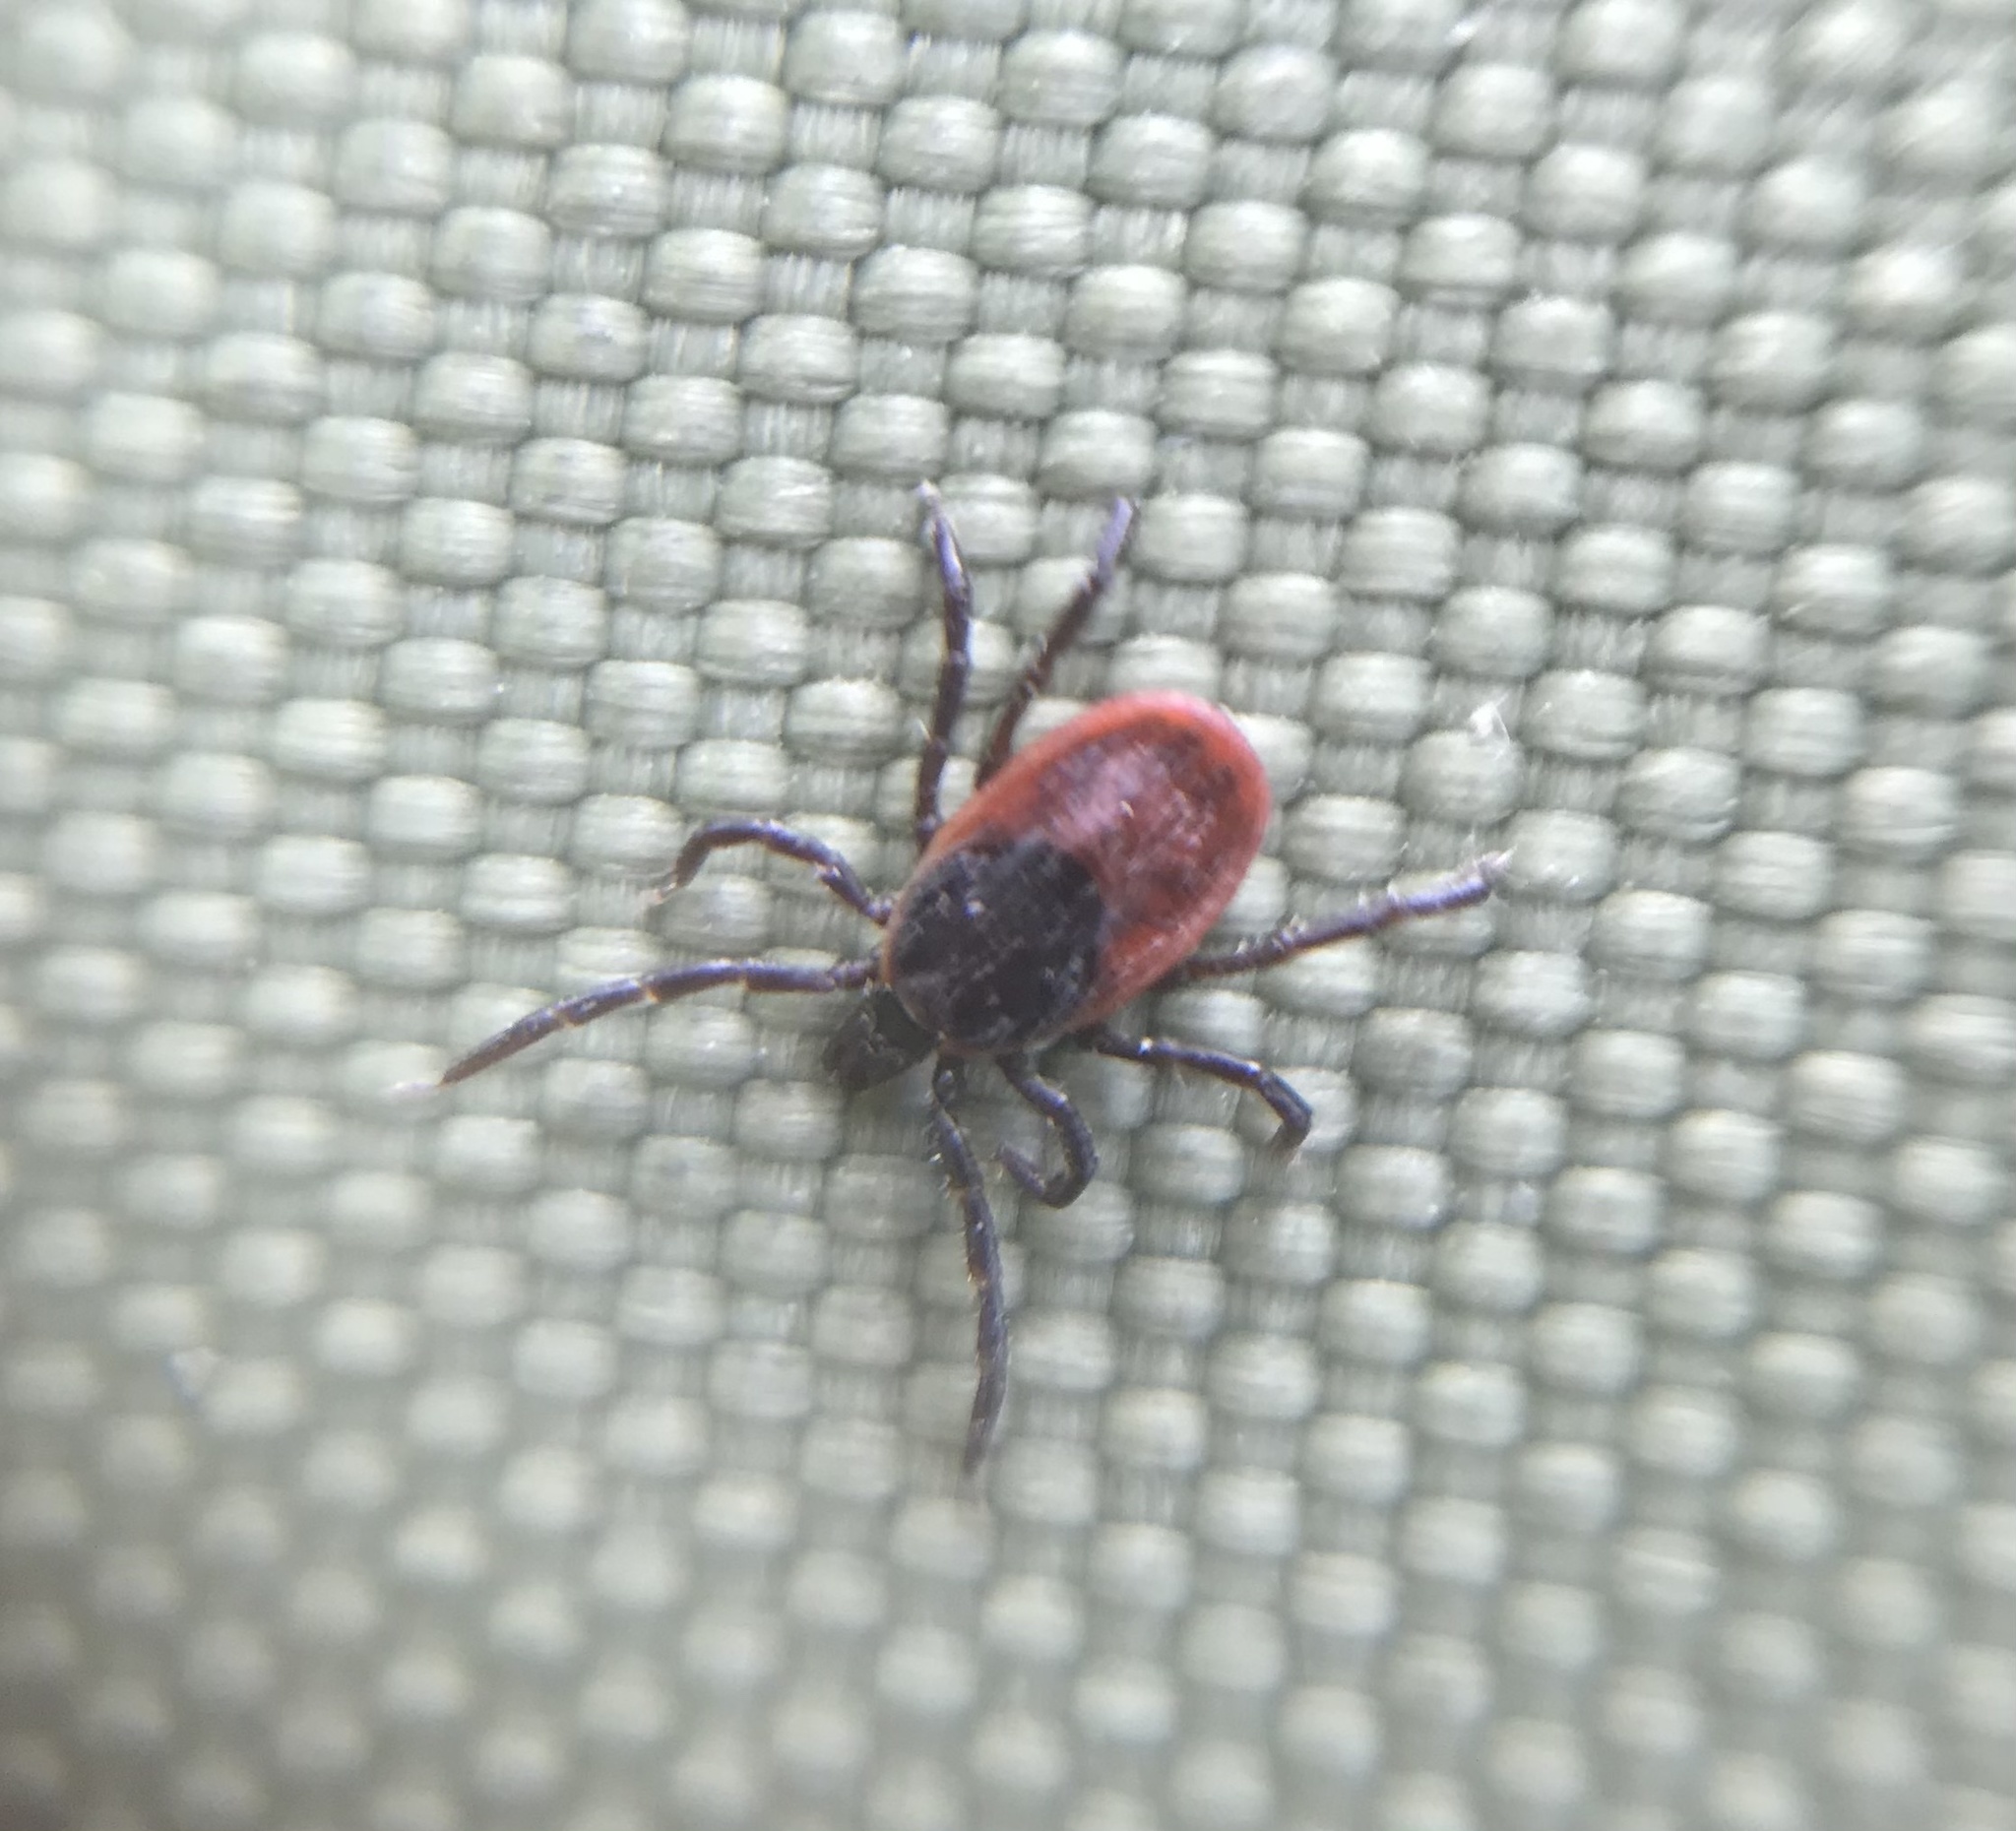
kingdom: Animalia
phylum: Arthropoda
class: Arachnida
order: Ixodida
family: Ixodidae
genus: Ixodes
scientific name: Ixodes pacificus
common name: California black-legged tick
